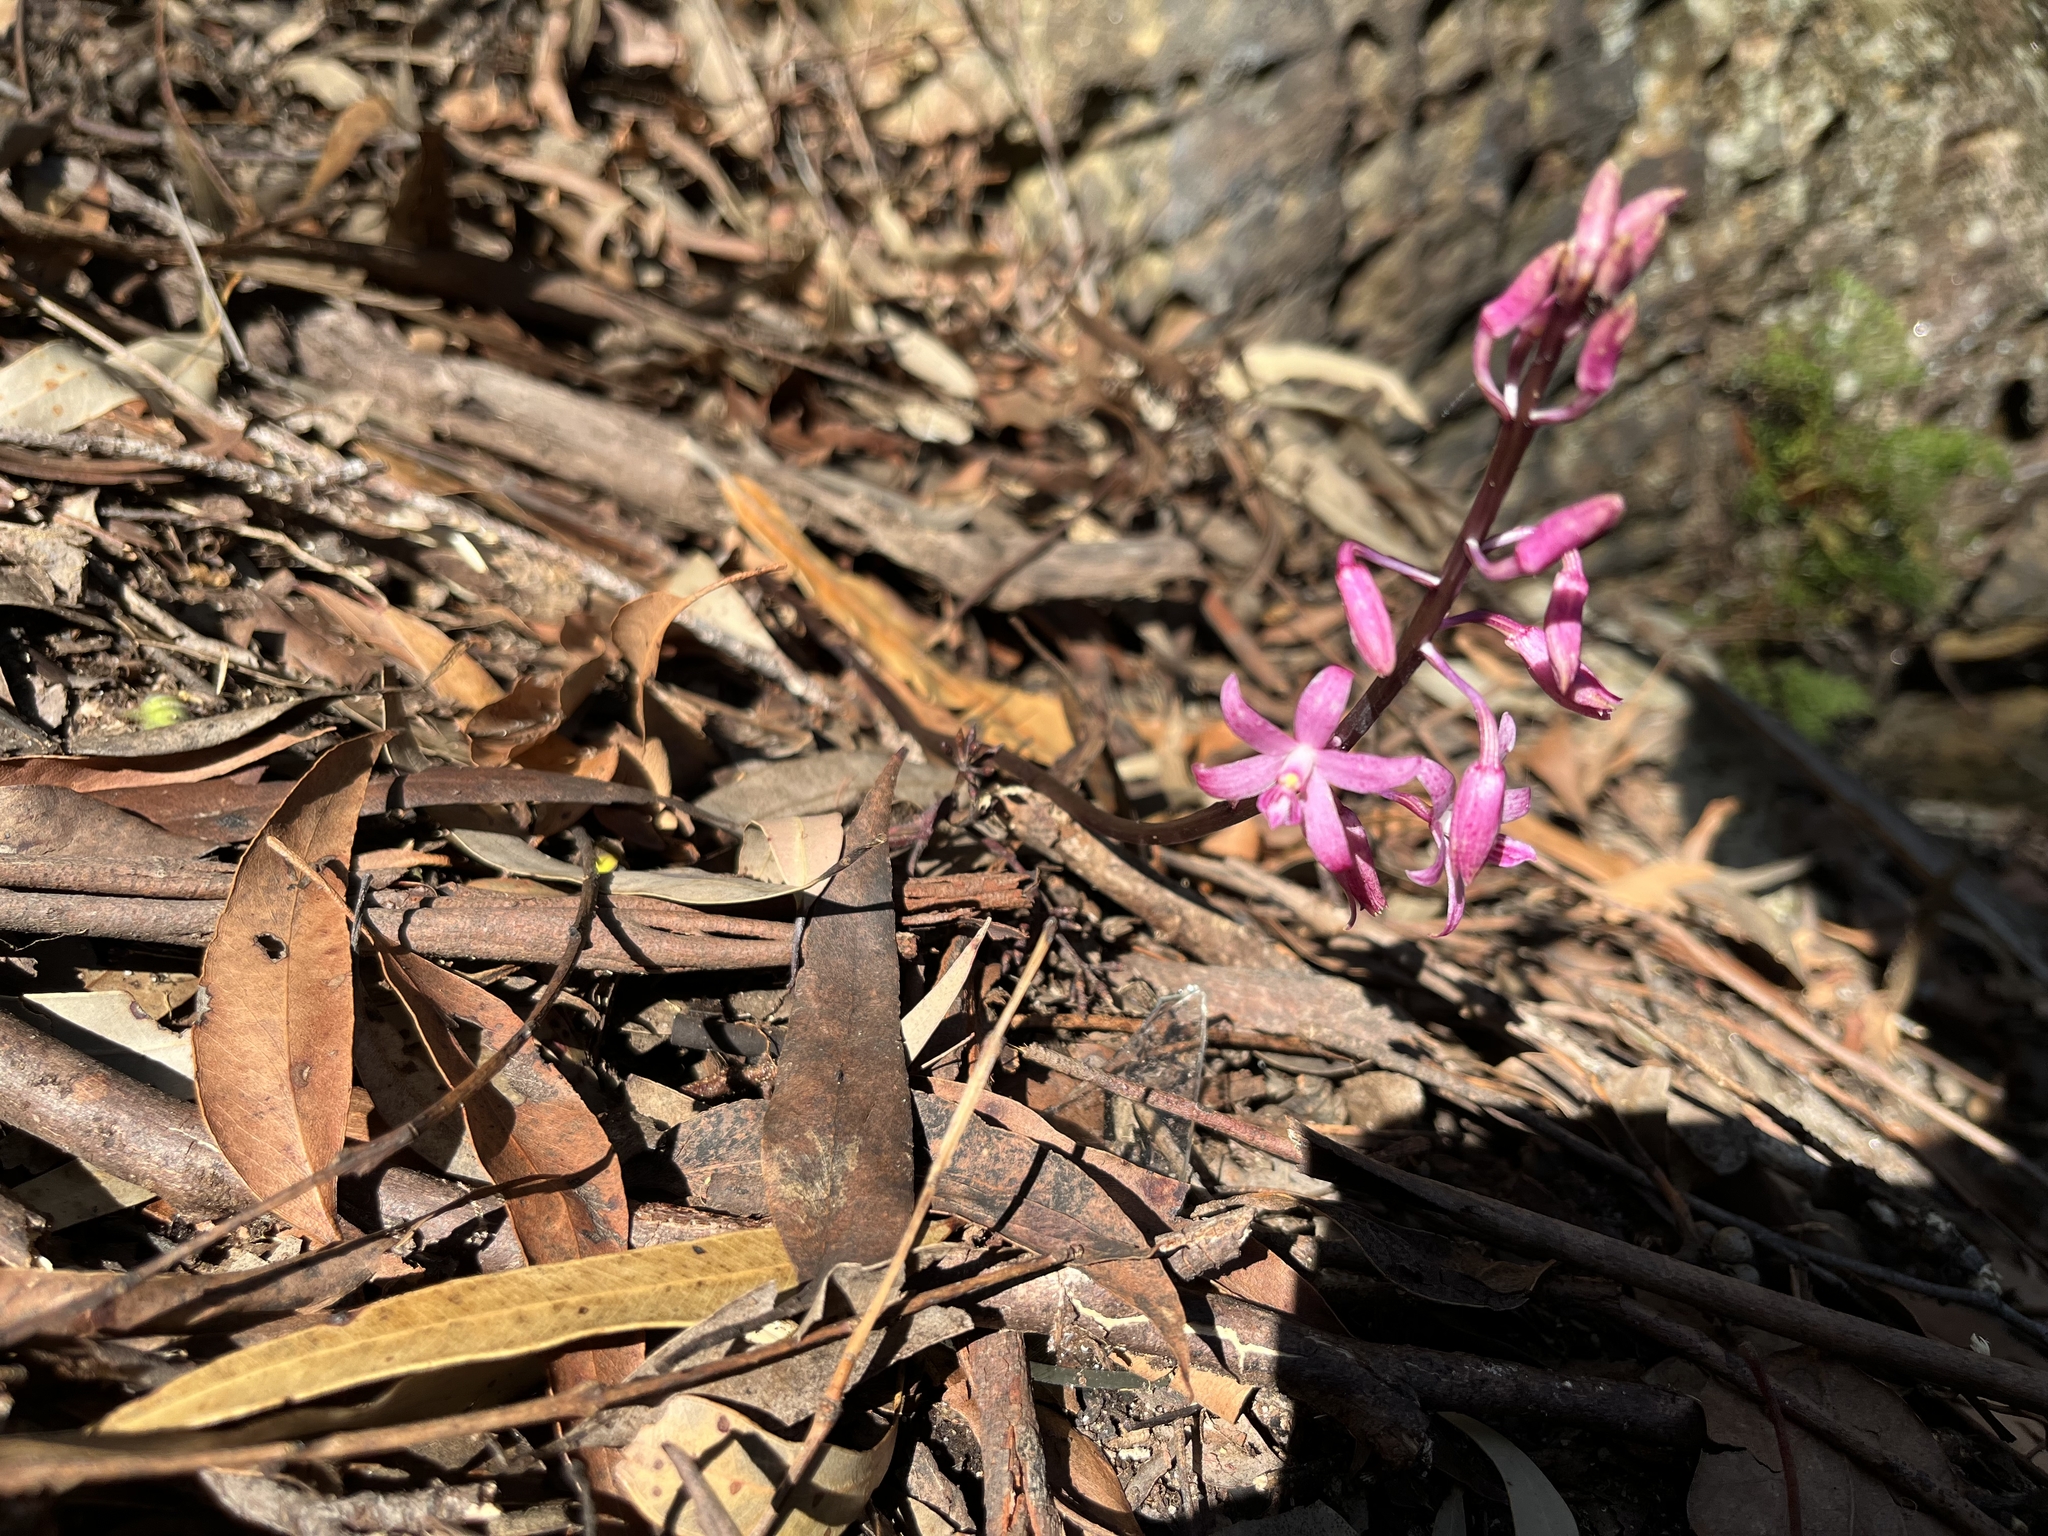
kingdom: Plantae
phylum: Tracheophyta
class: Liliopsida
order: Asparagales
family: Orchidaceae
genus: Dipodium
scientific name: Dipodium roseum
